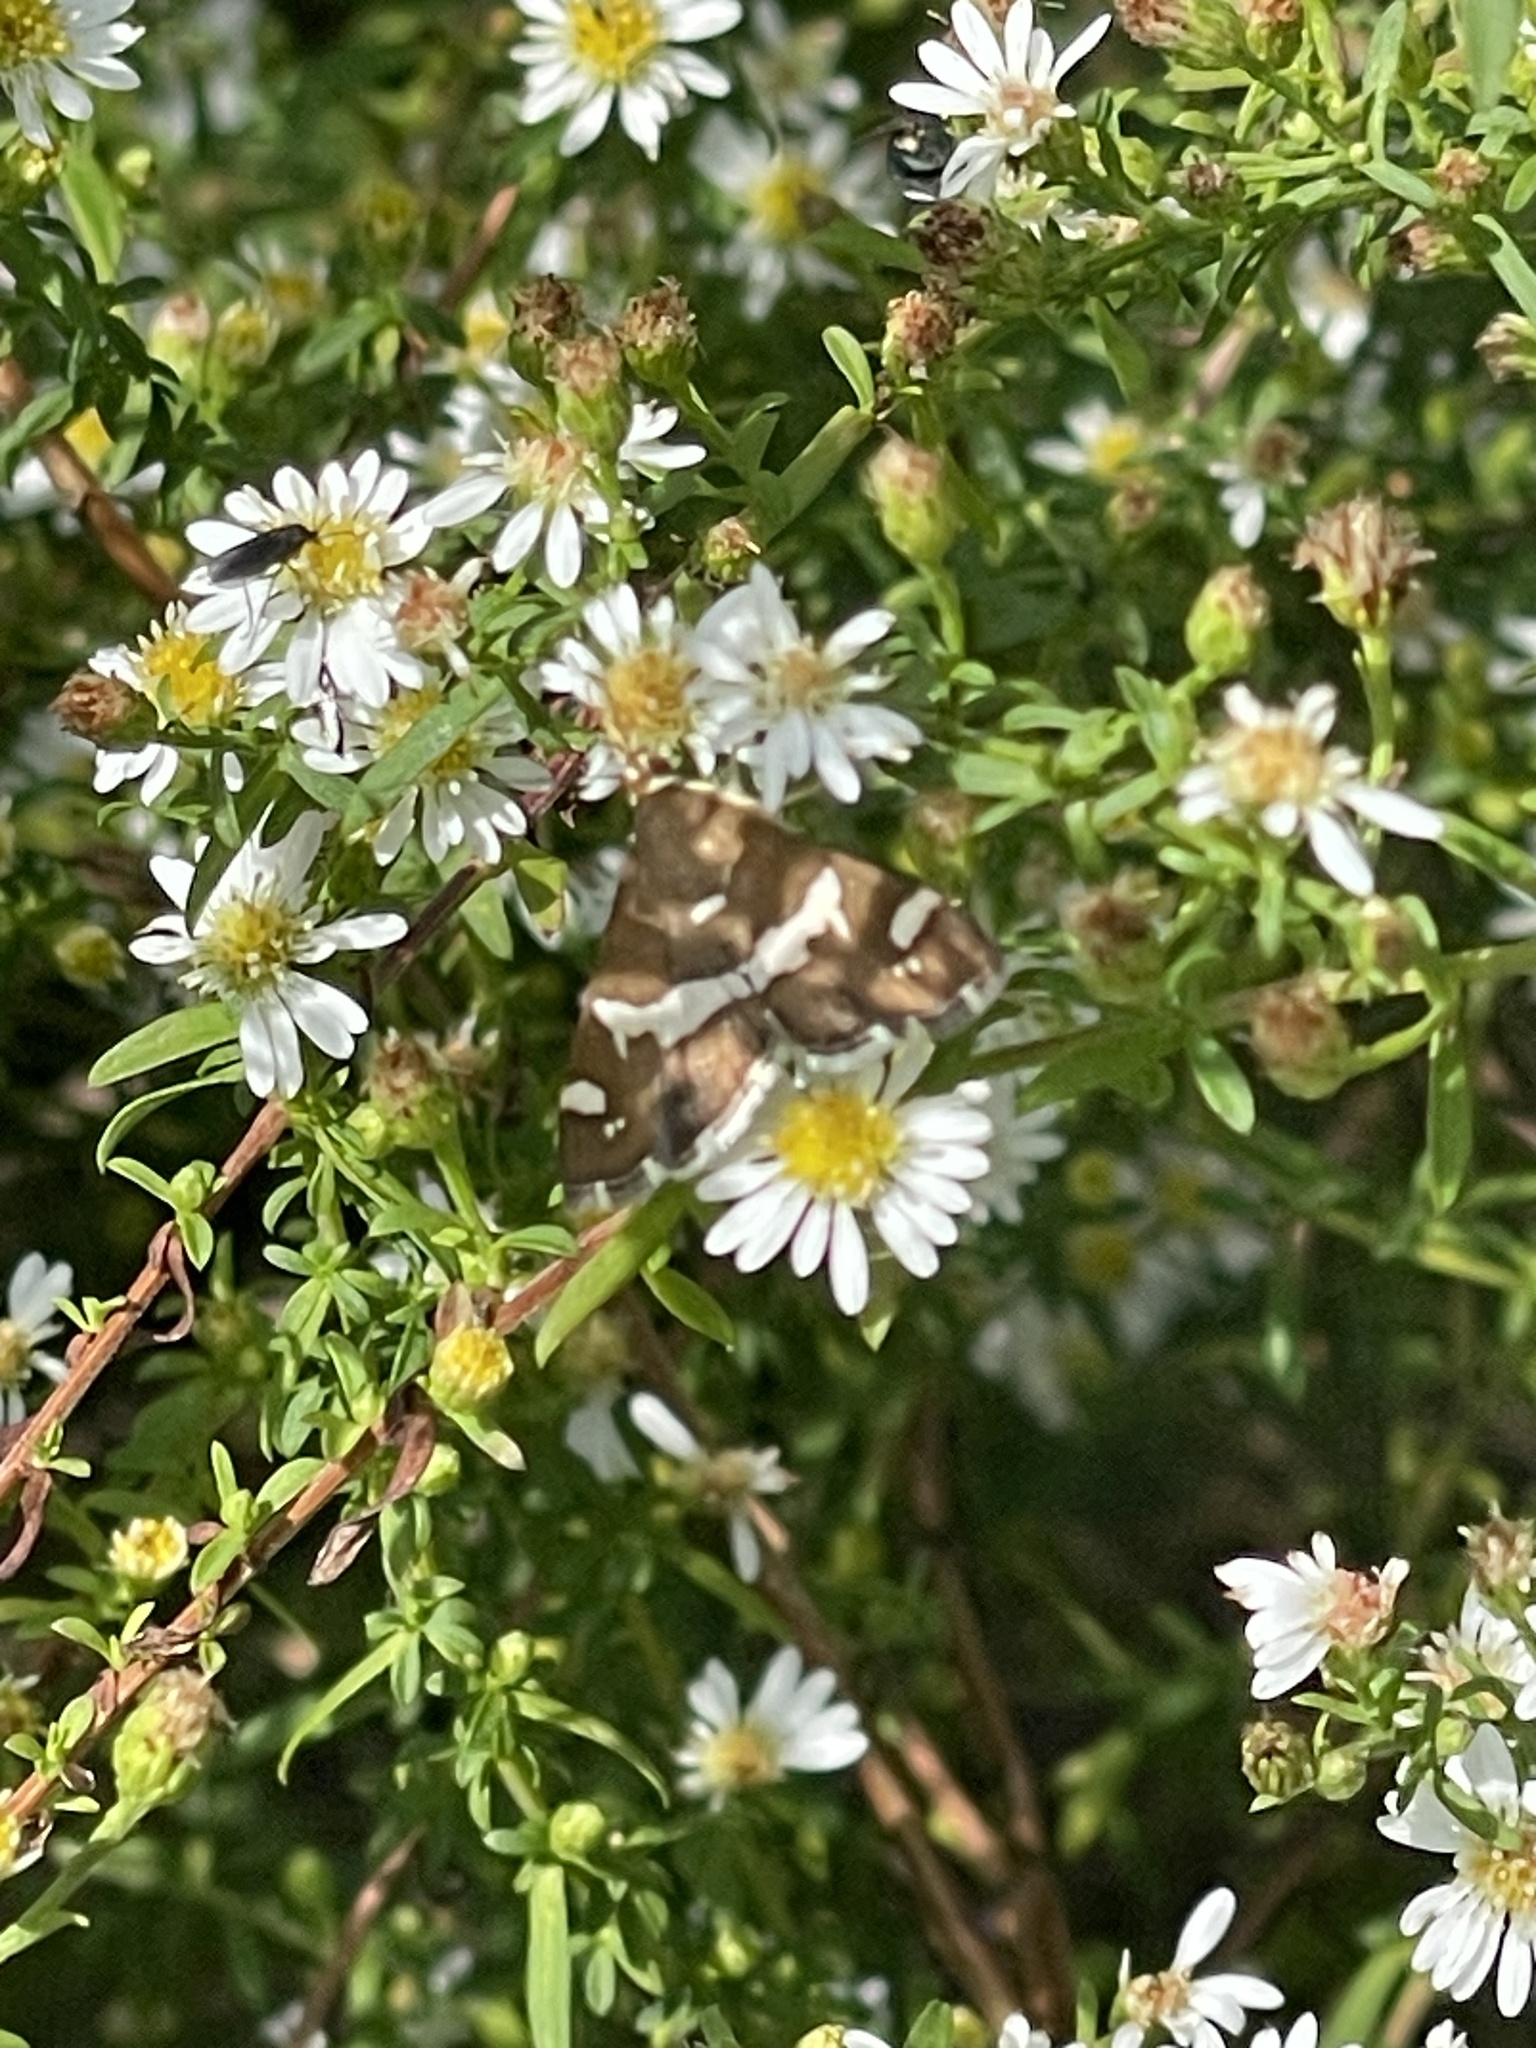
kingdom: Animalia
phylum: Arthropoda
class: Insecta
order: Lepidoptera
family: Crambidae
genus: Spoladea
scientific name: Spoladea recurvalis
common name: Beet webworm moth
